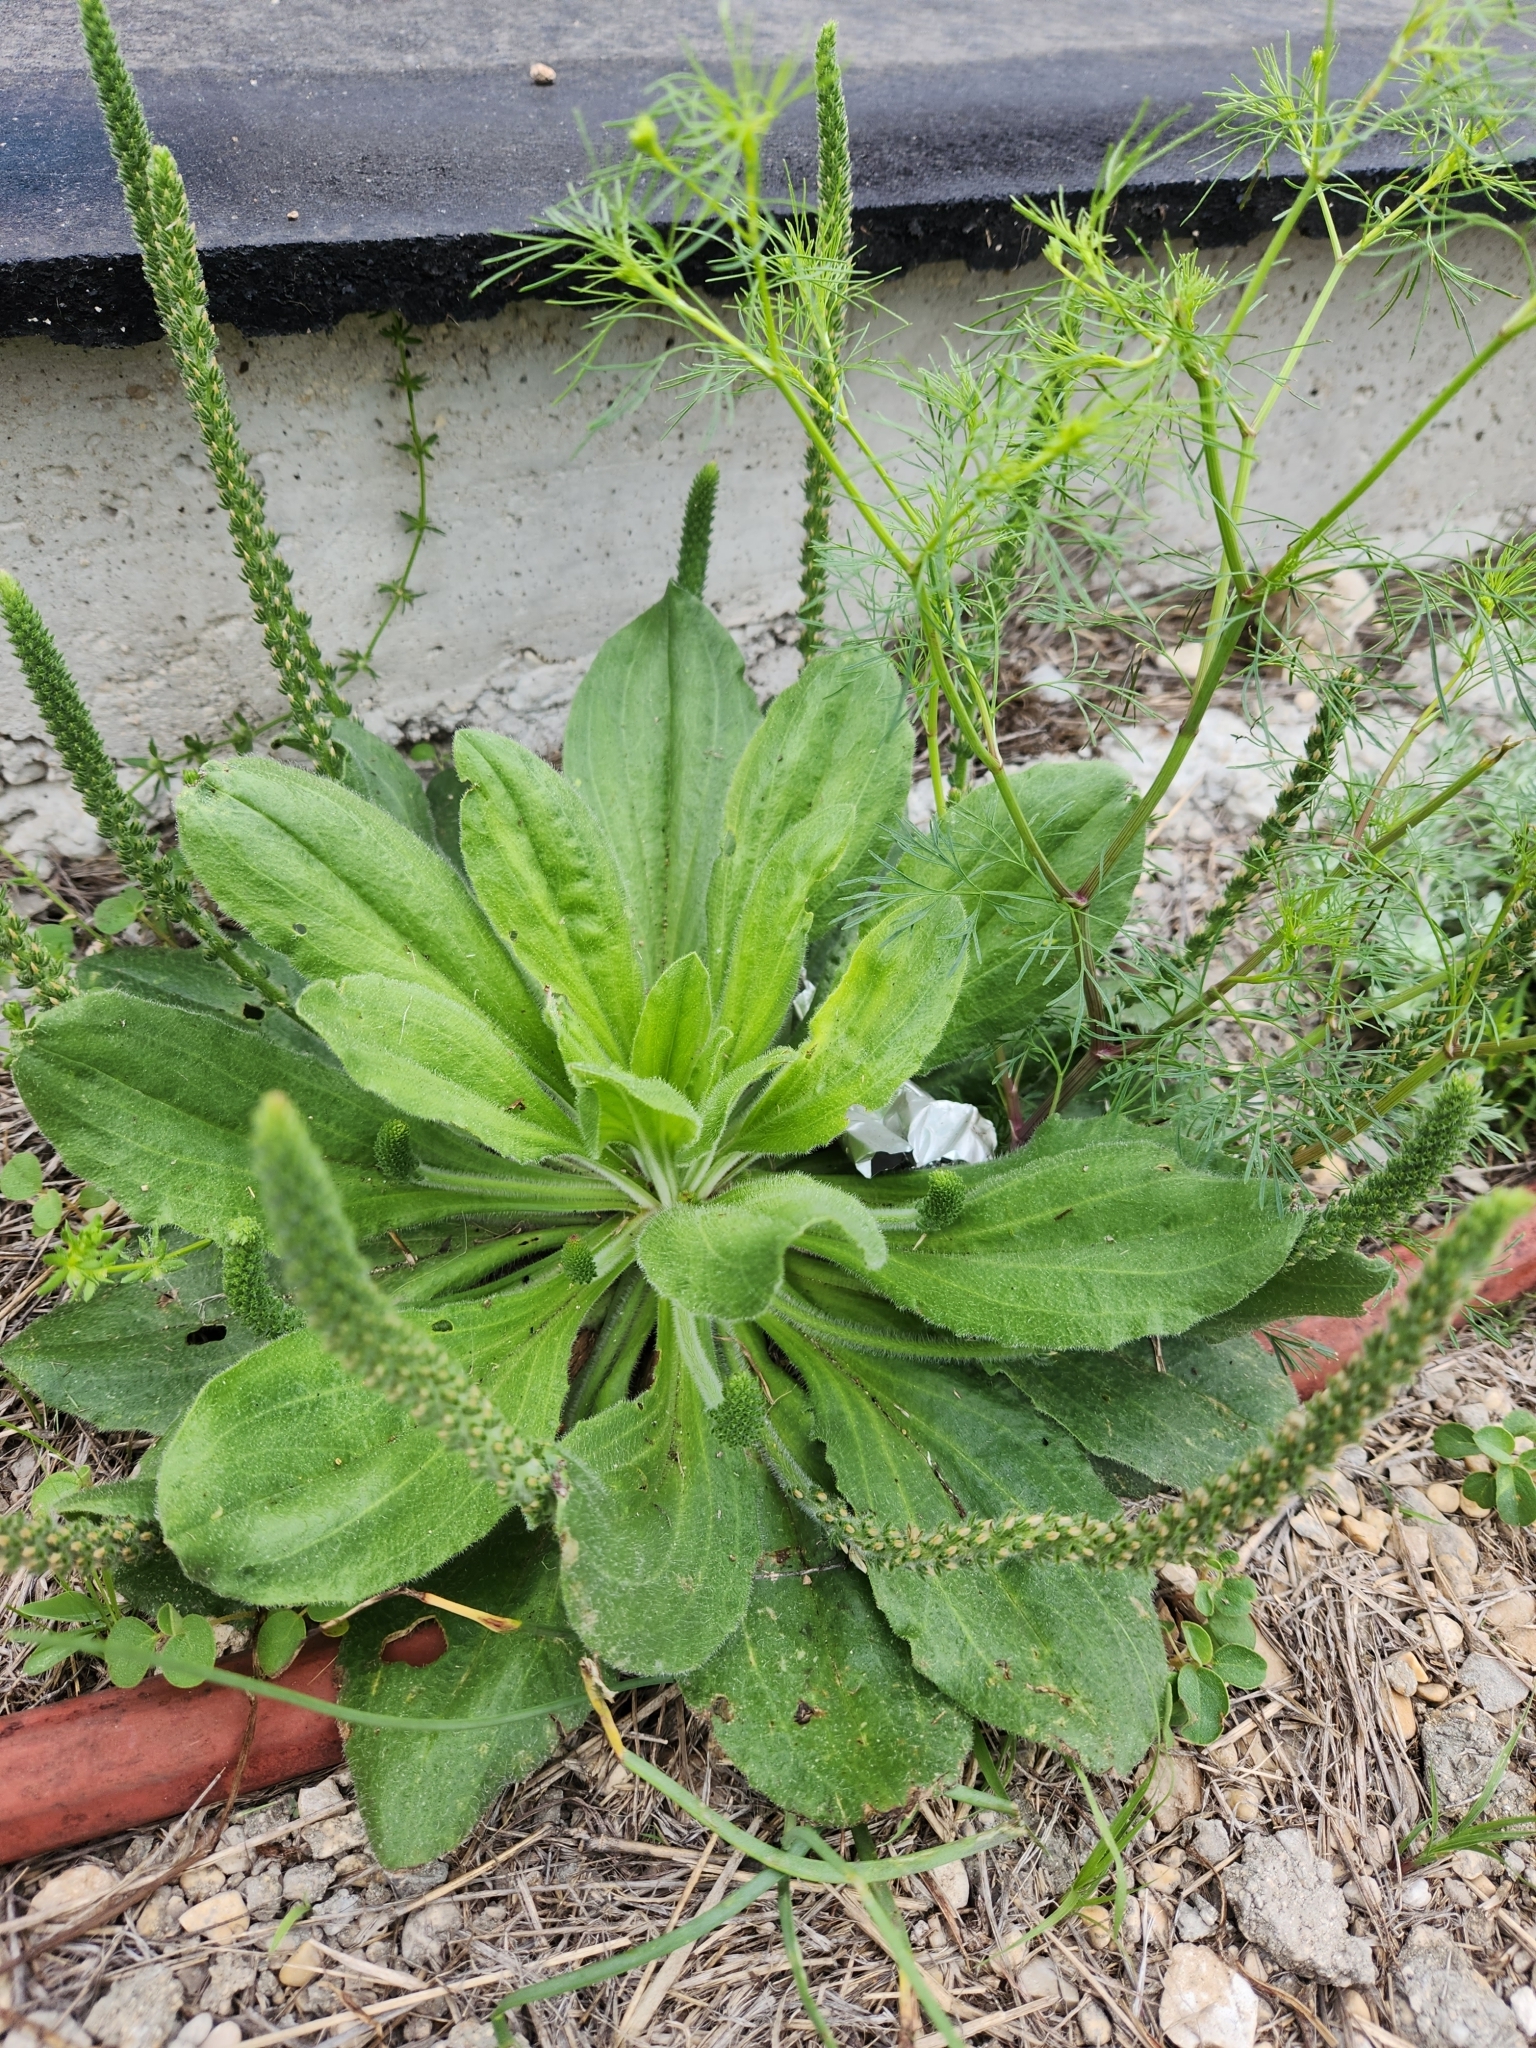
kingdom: Plantae
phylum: Tracheophyta
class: Magnoliopsida
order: Lamiales
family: Plantaginaceae
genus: Plantago
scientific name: Plantago rhodosperma
